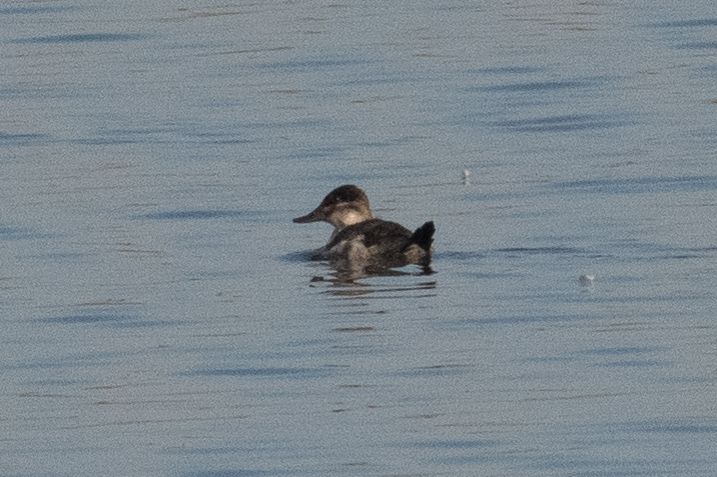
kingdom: Animalia
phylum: Chordata
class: Aves
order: Anseriformes
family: Anatidae
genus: Oxyura
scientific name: Oxyura jamaicensis
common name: Ruddy duck
